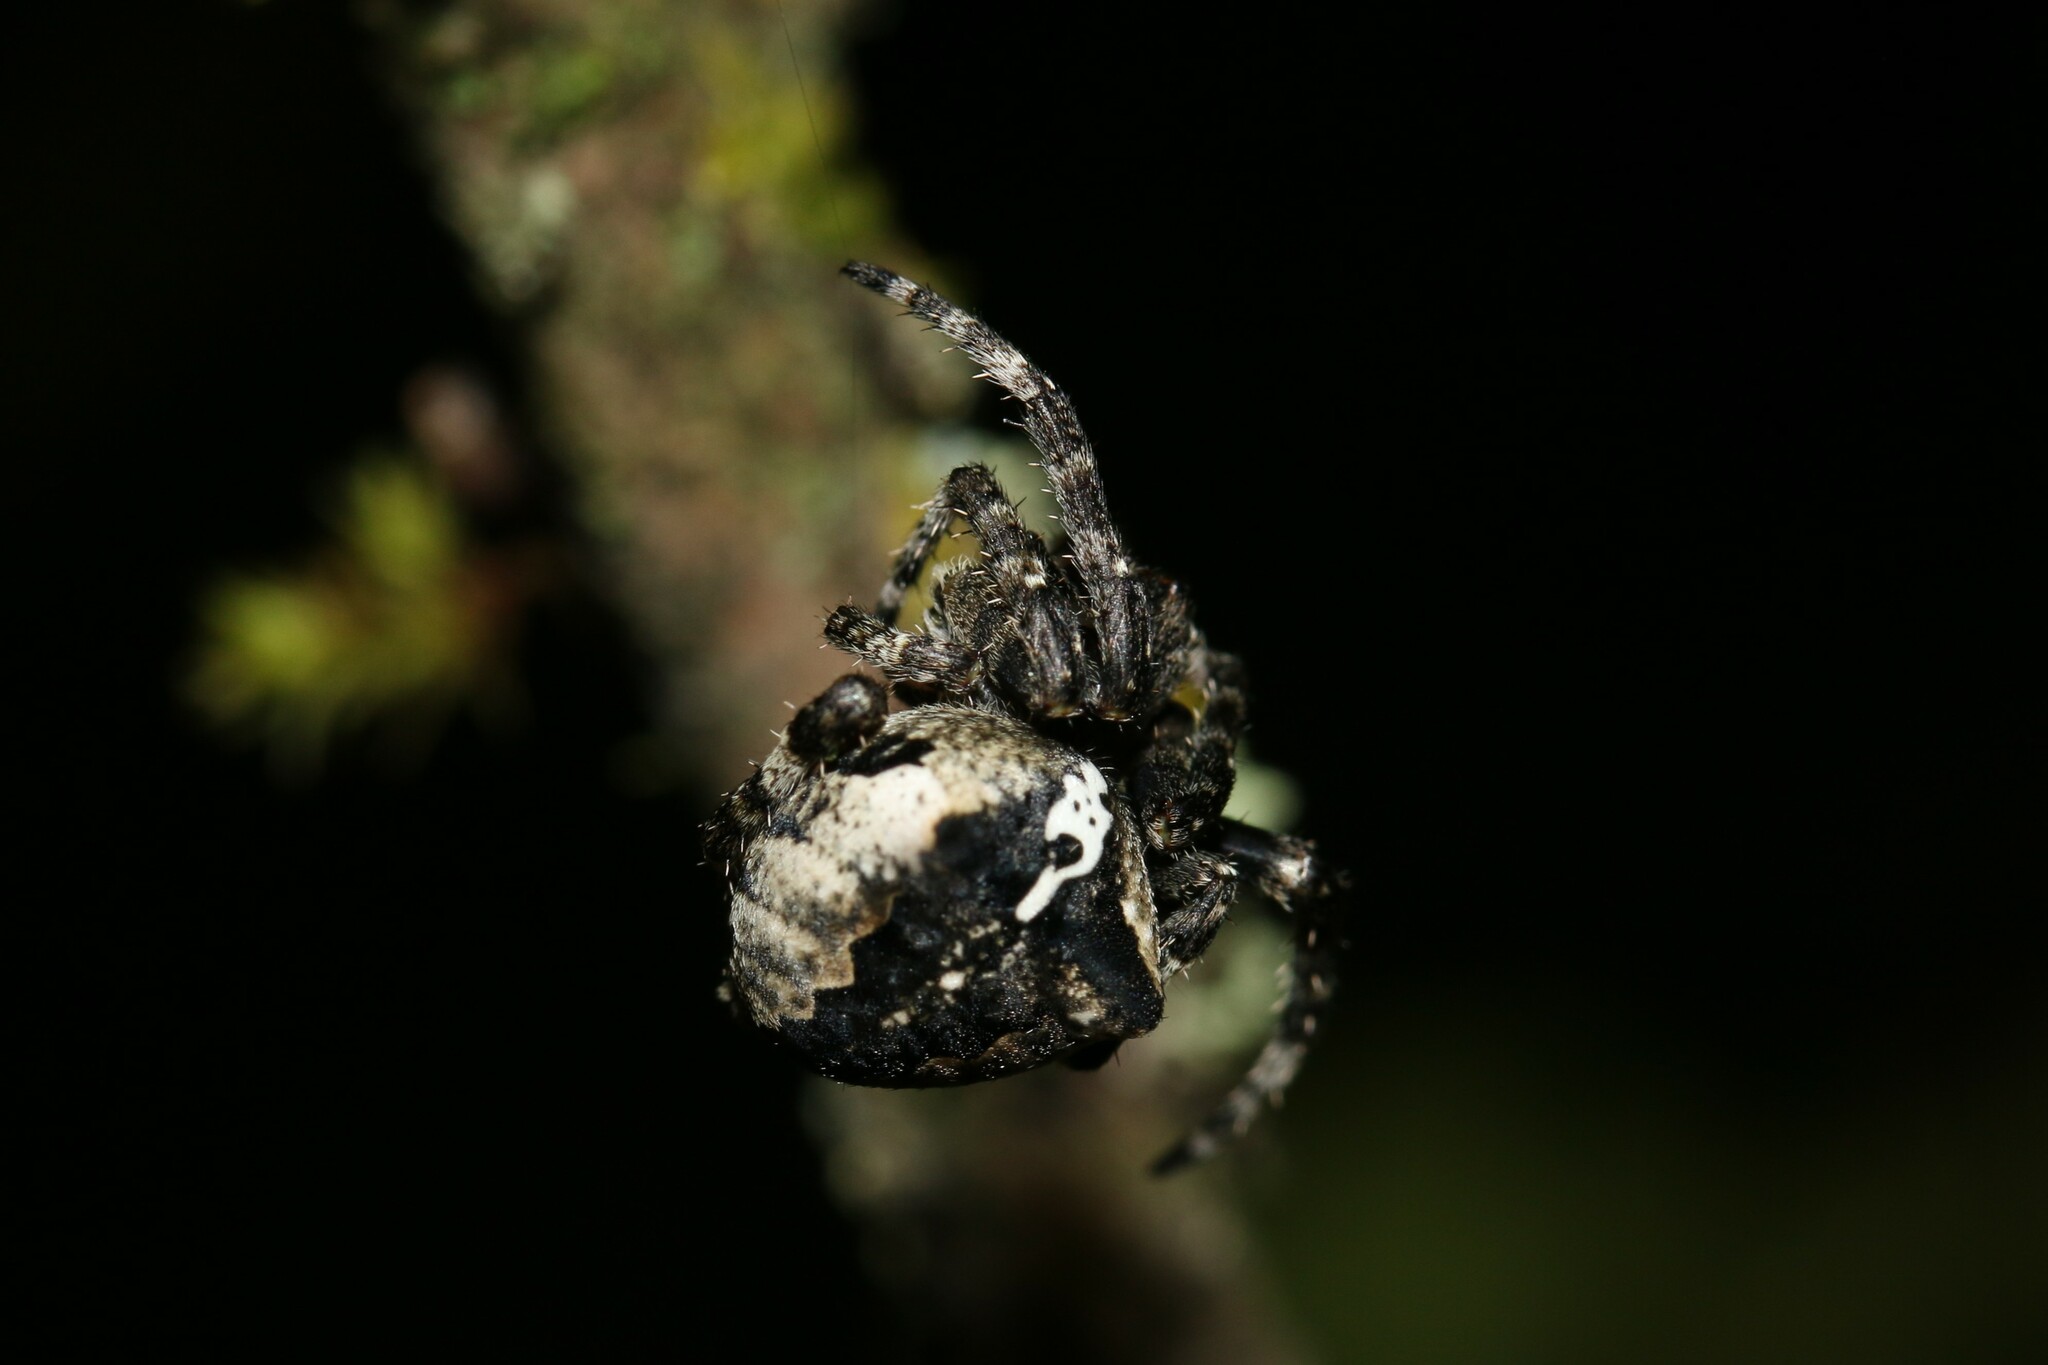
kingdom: Animalia
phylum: Arthropoda
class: Arachnida
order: Araneae
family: Araneidae
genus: Araneus
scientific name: Araneus angulatus
